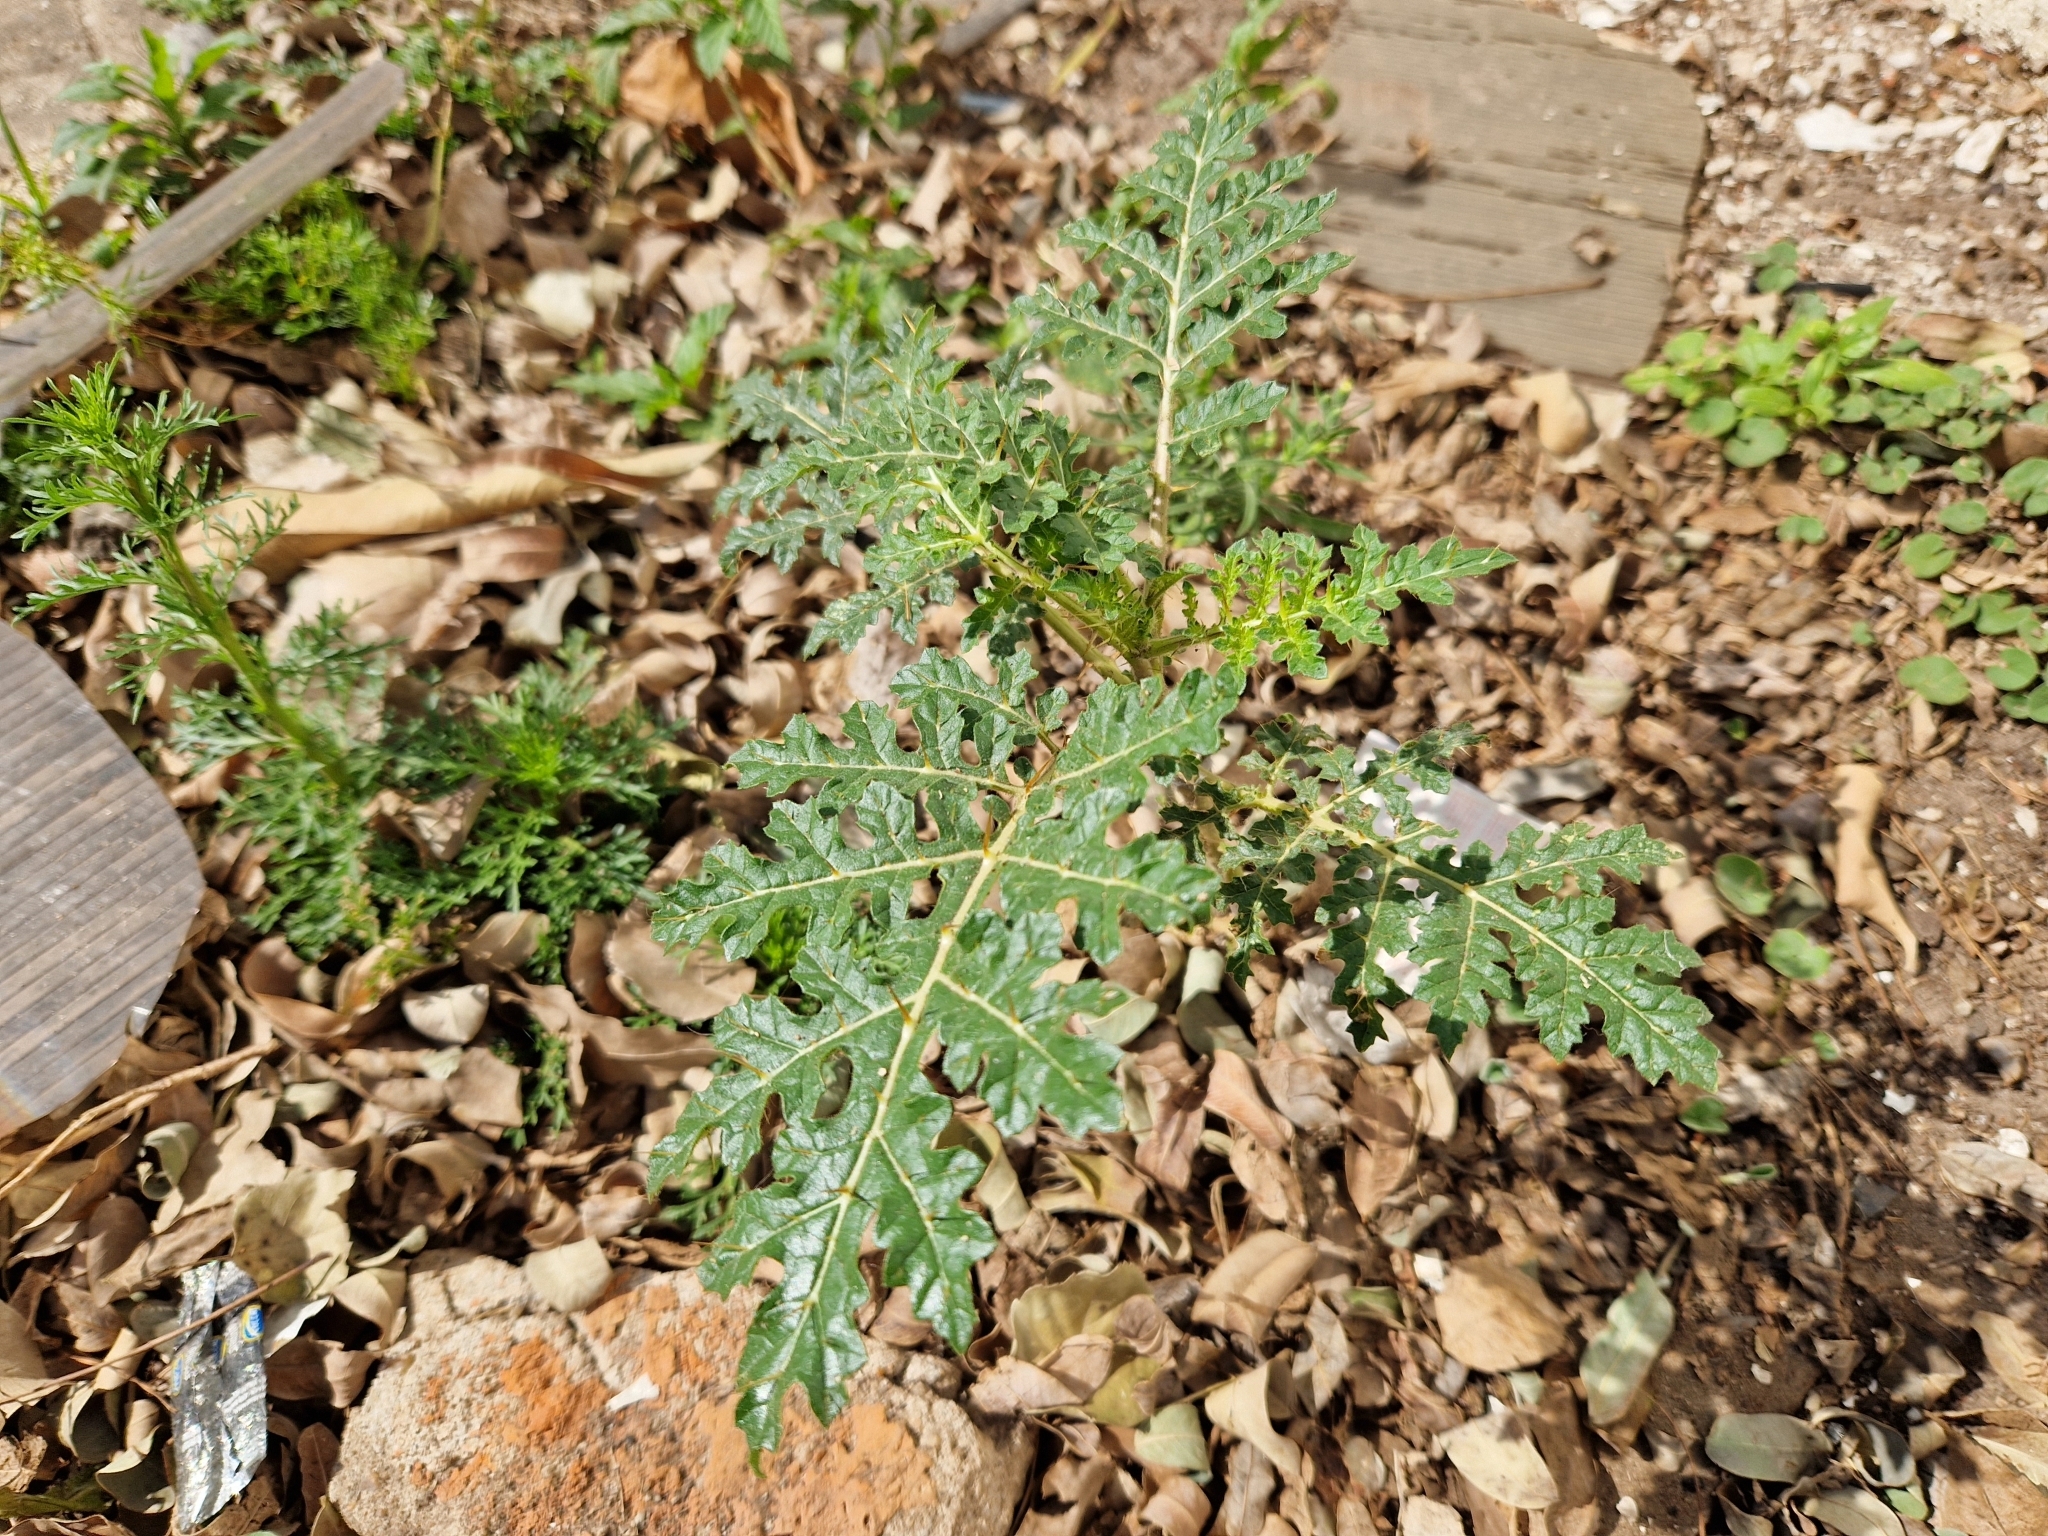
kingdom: Plantae
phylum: Tracheophyta
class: Magnoliopsida
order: Solanales
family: Solanaceae
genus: Solanum
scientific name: Solanum sisymbriifolium
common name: Red buffalo-bur
